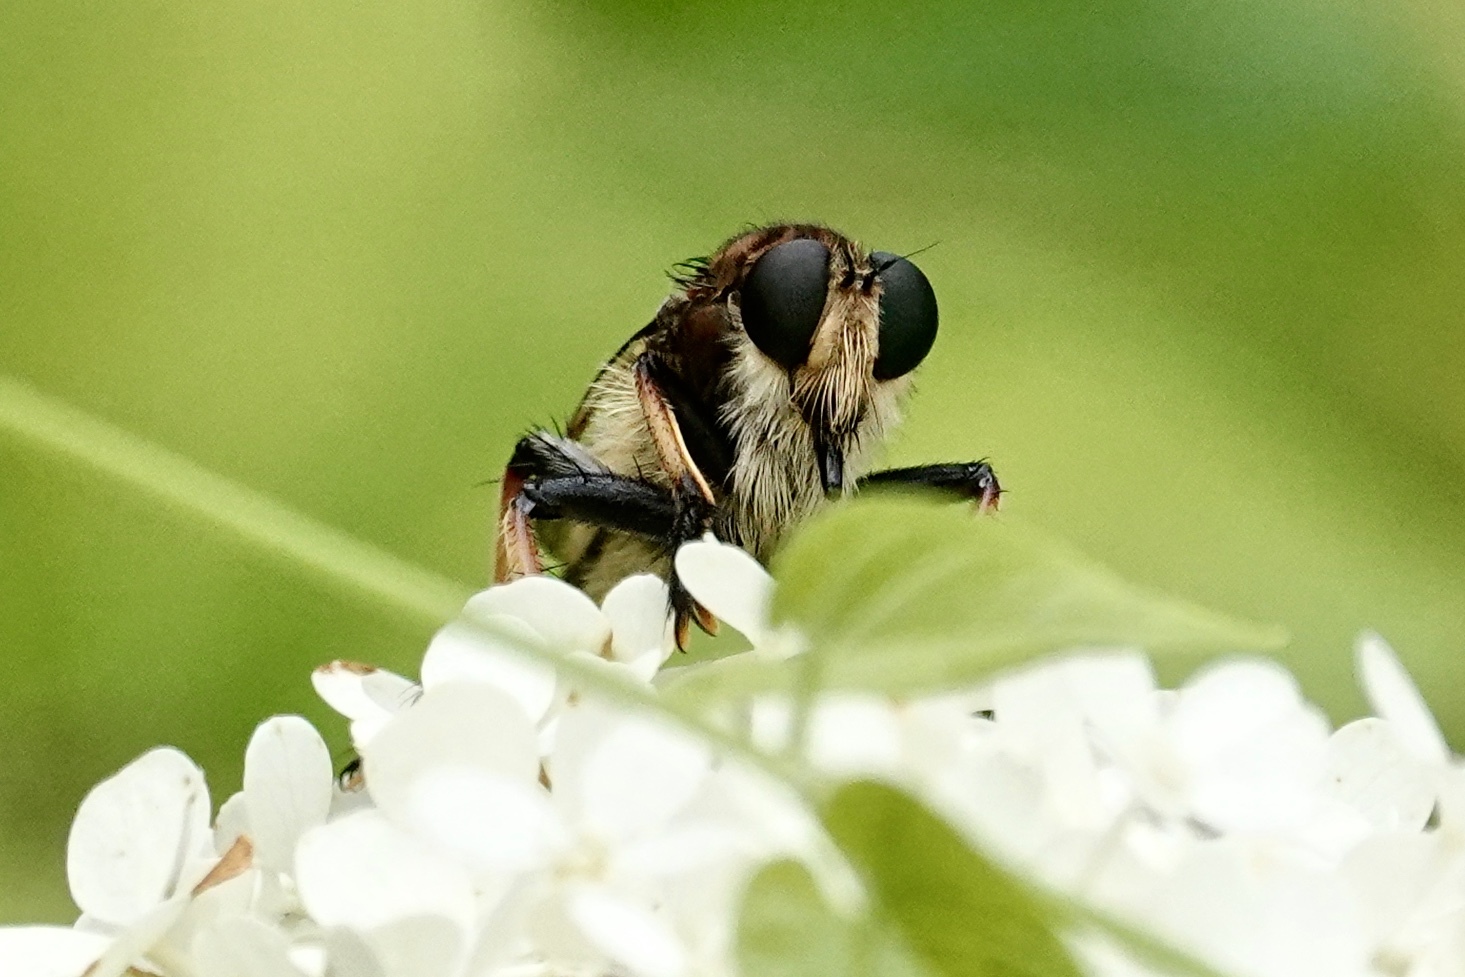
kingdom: Animalia
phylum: Arthropoda
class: Insecta
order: Diptera
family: Asilidae
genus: Promachus
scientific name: Promachus rufipes
